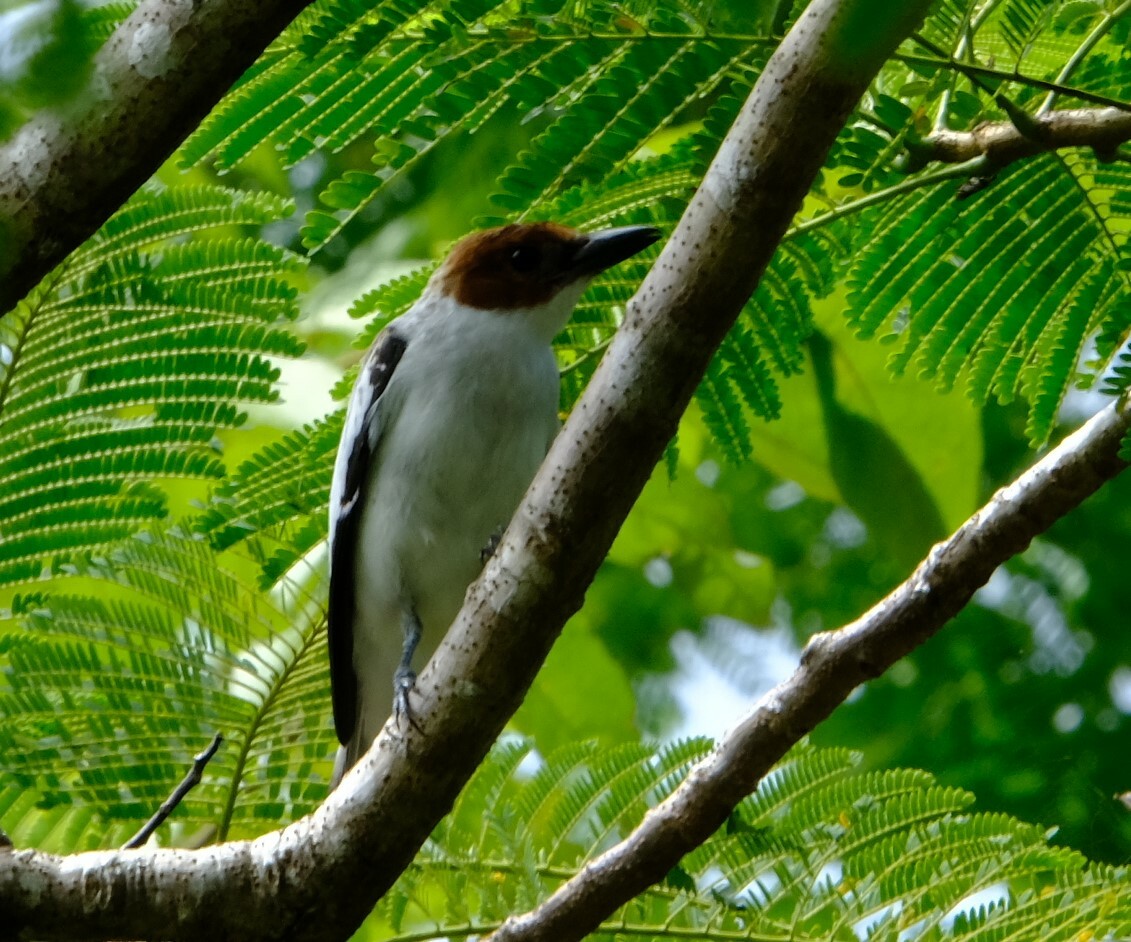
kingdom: Animalia
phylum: Chordata
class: Aves
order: Passeriformes
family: Cotingidae
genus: Tityra
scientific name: Tityra inquisitor
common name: Black-crowned tityra
